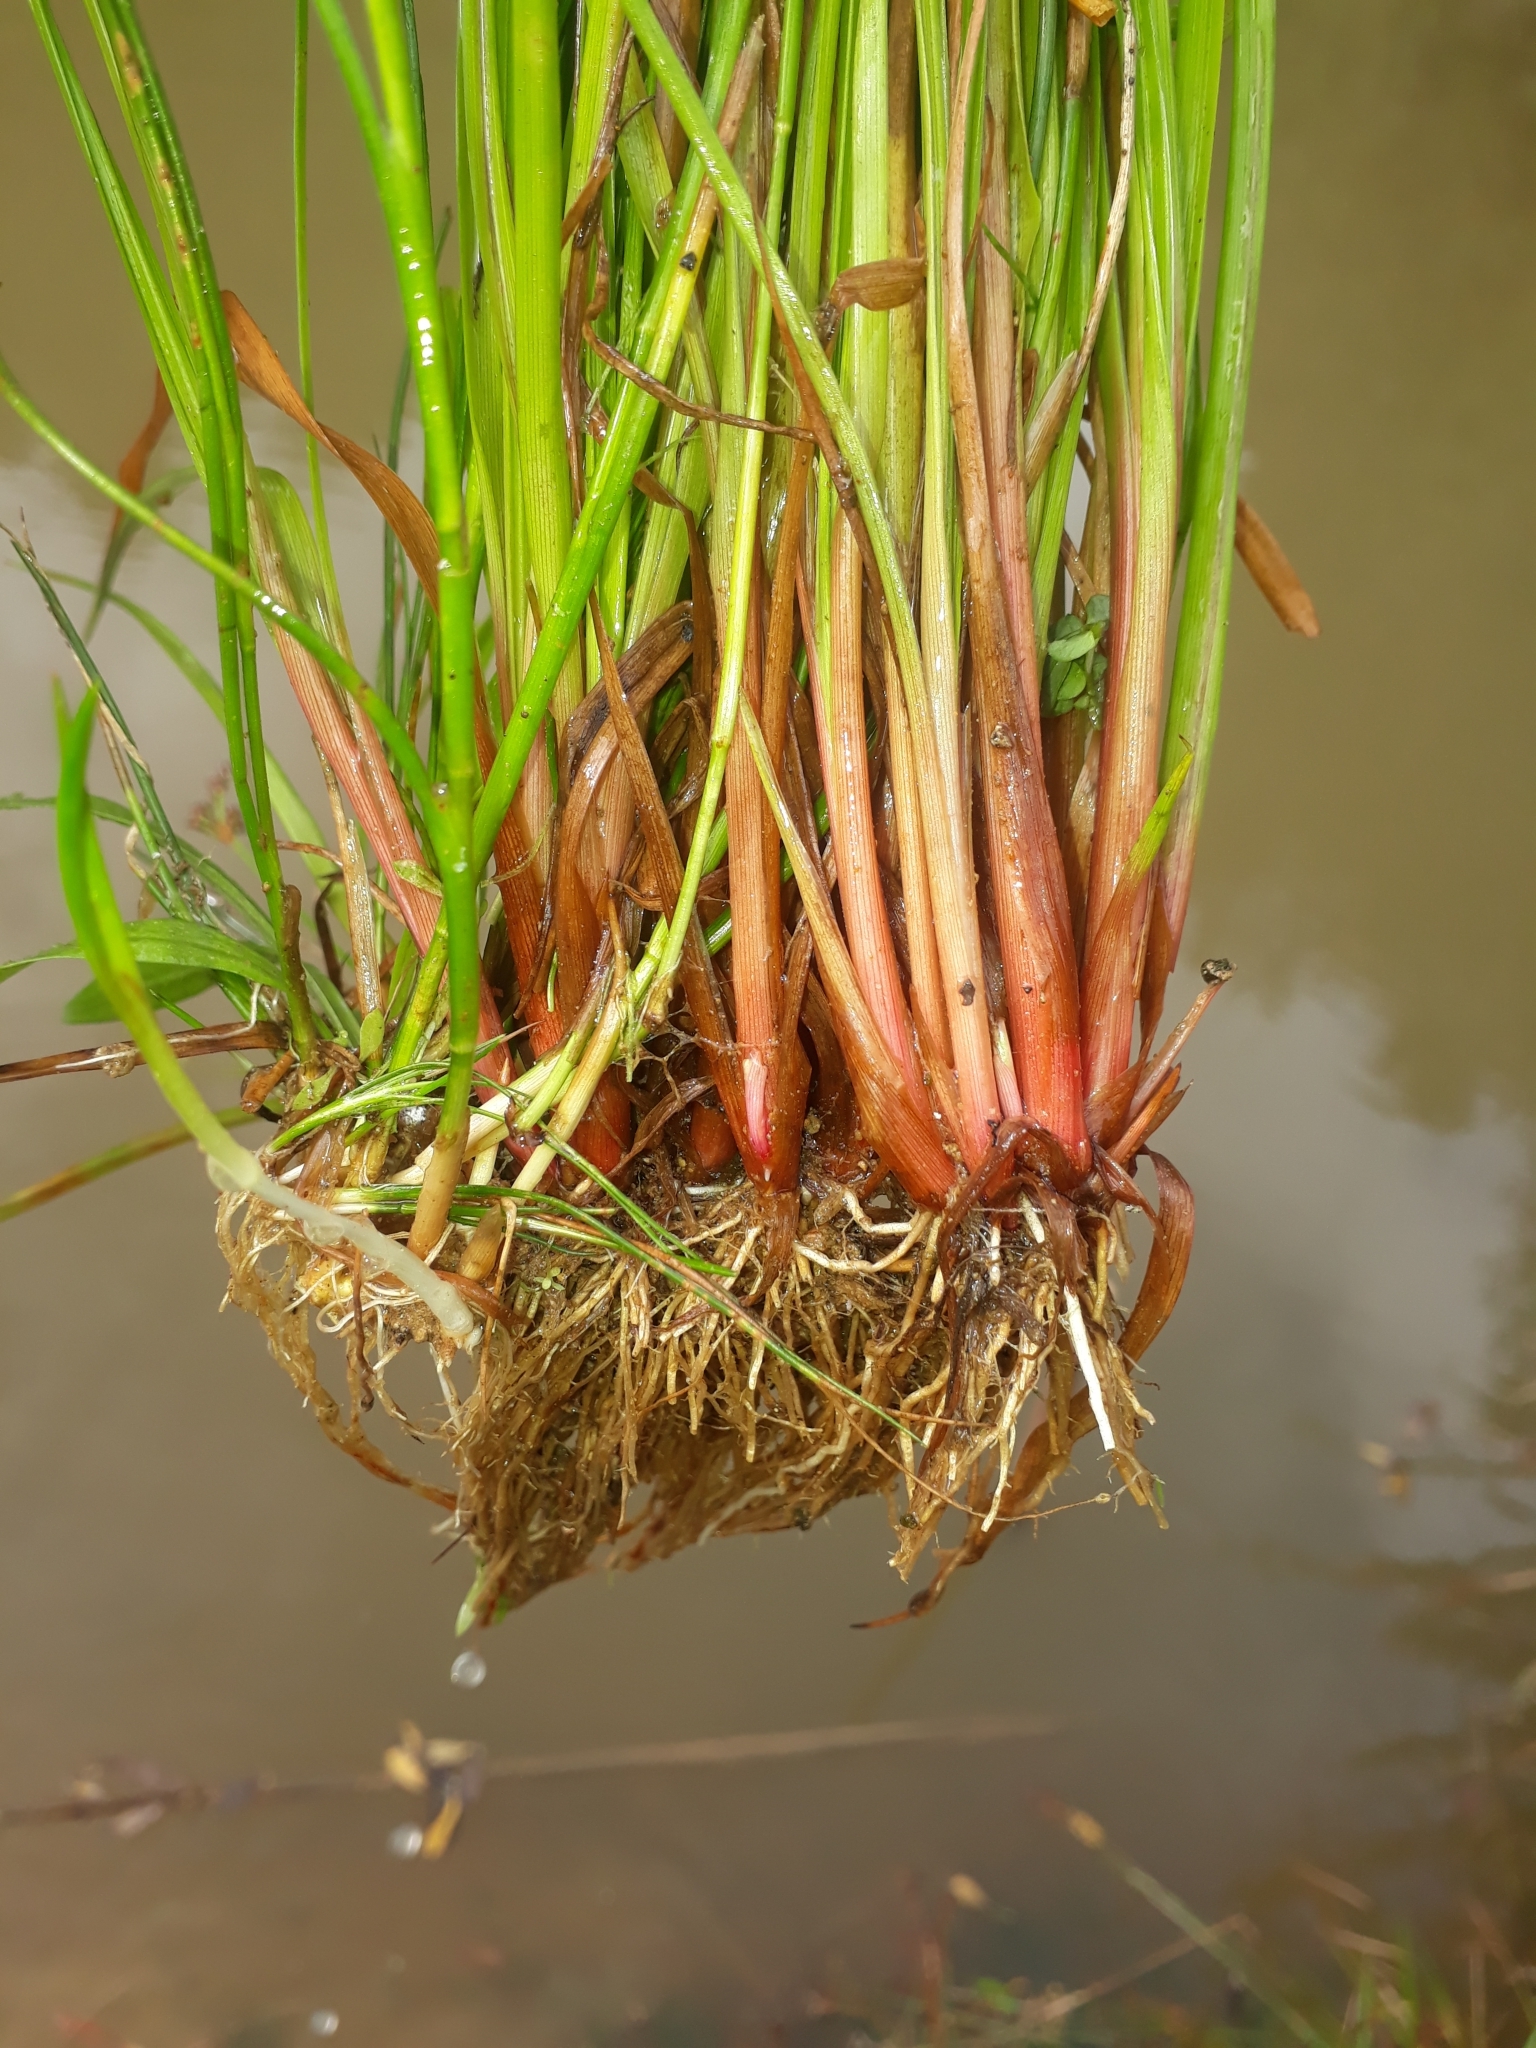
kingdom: Plantae
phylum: Tracheophyta
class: Liliopsida
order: Poales
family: Juncaceae
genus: Juncus
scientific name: Juncus planifolius
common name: Broadleaf rush
